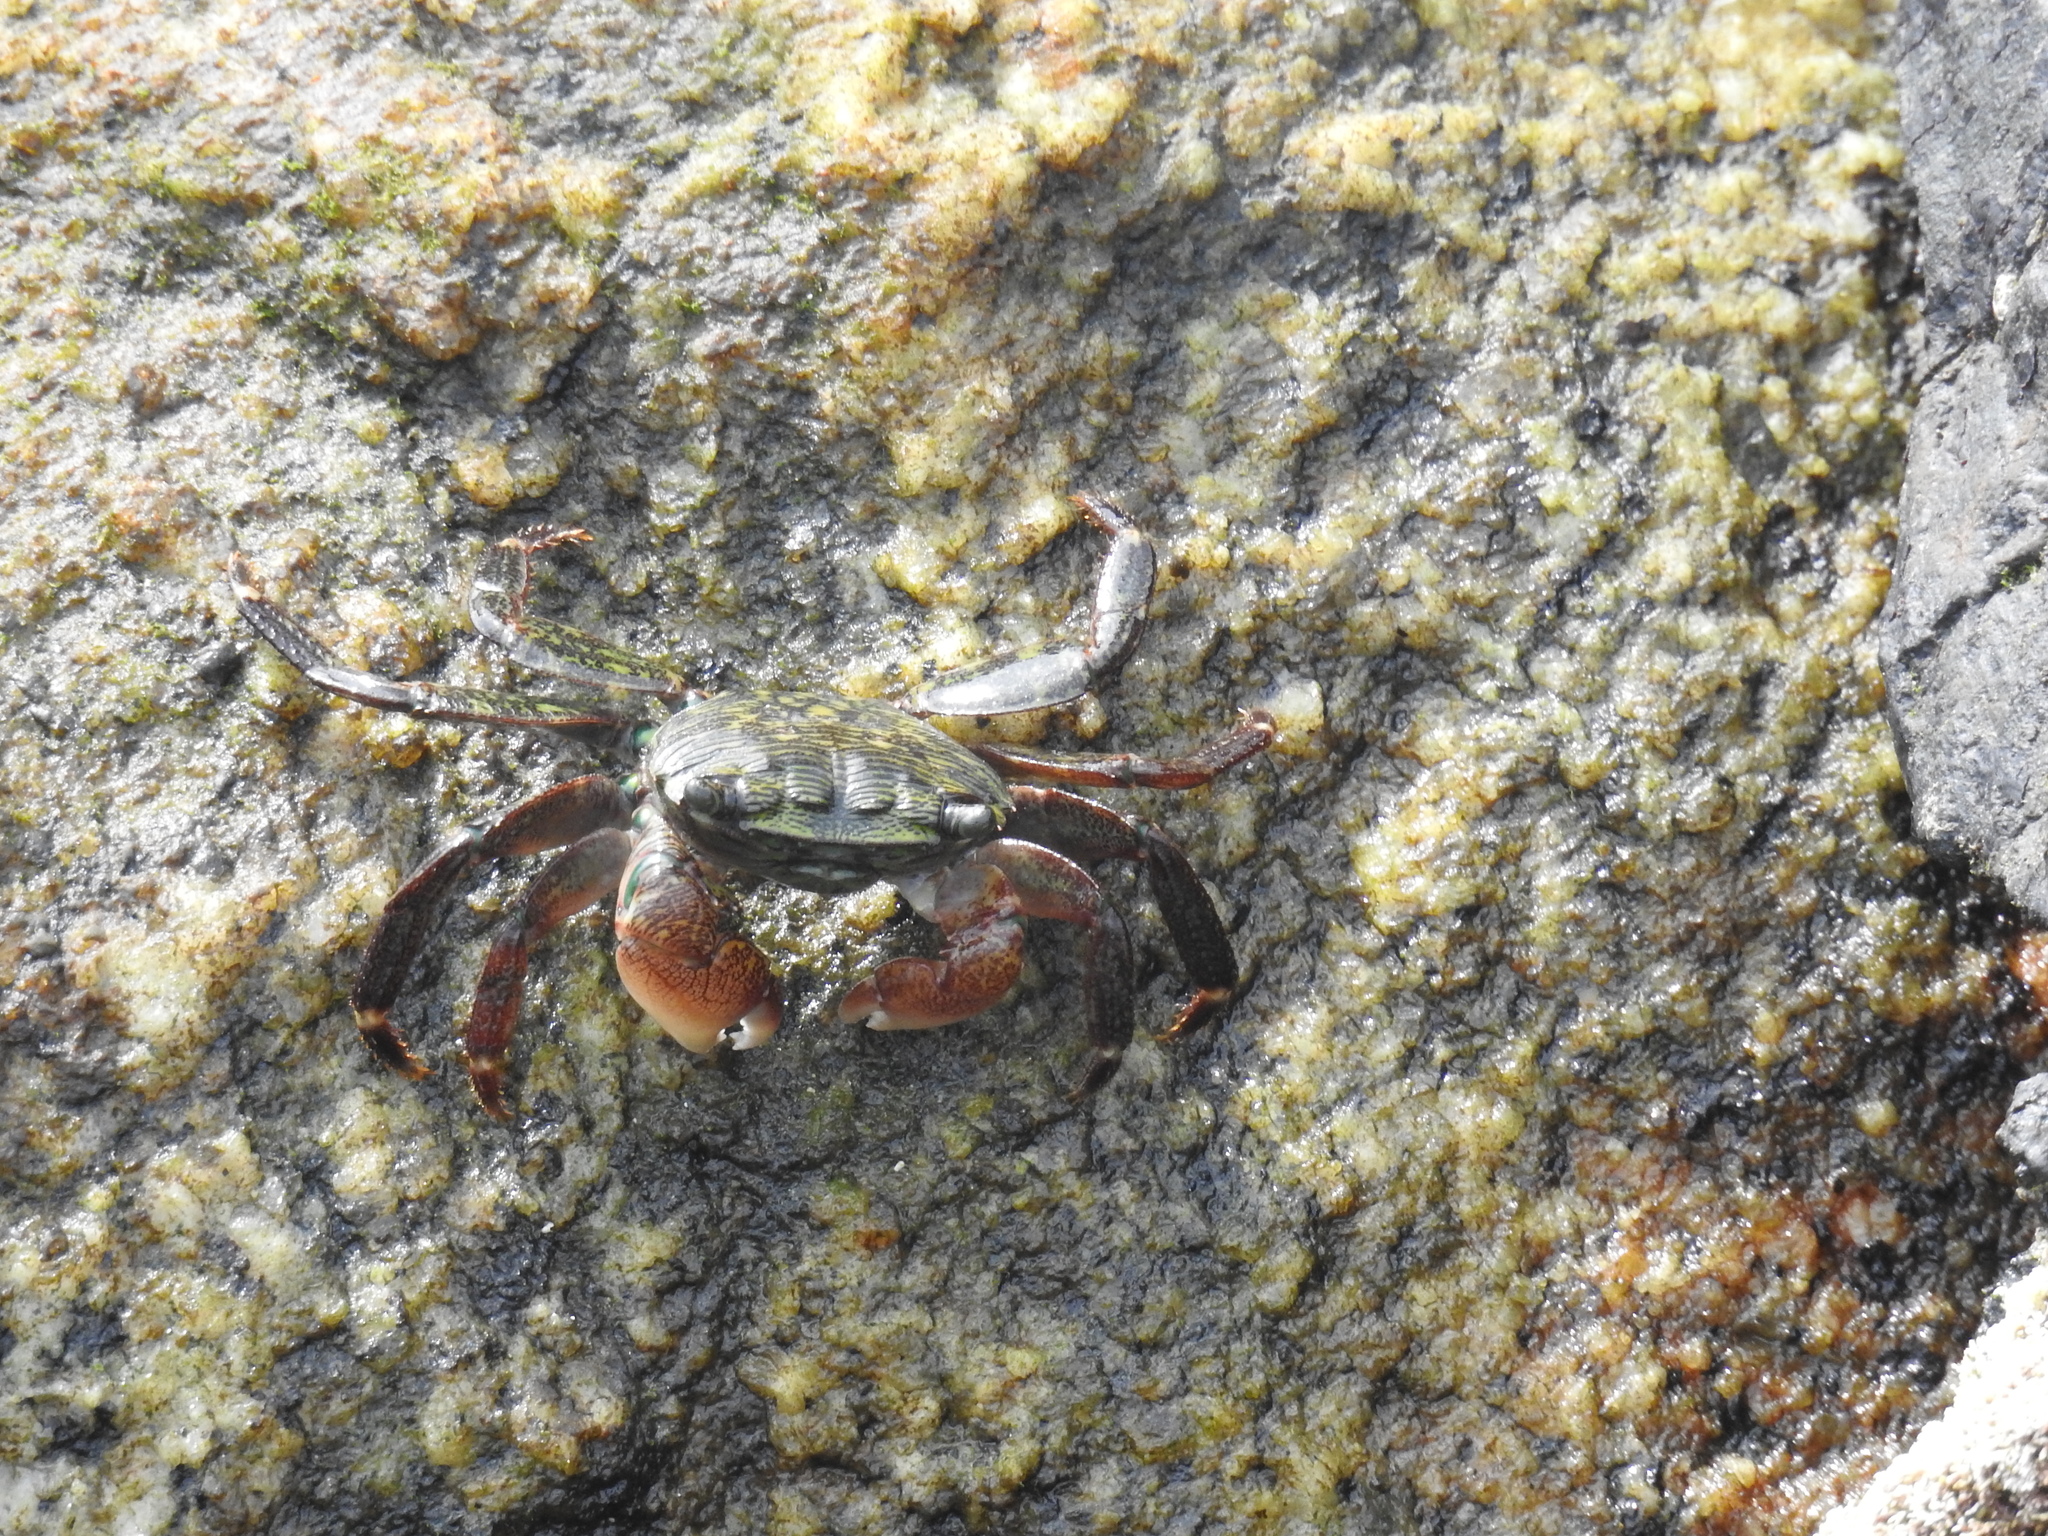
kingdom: Animalia
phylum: Arthropoda
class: Malacostraca
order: Decapoda
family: Grapsidae
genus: Pachygrapsus
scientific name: Pachygrapsus crassipes
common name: Striped shore crab
